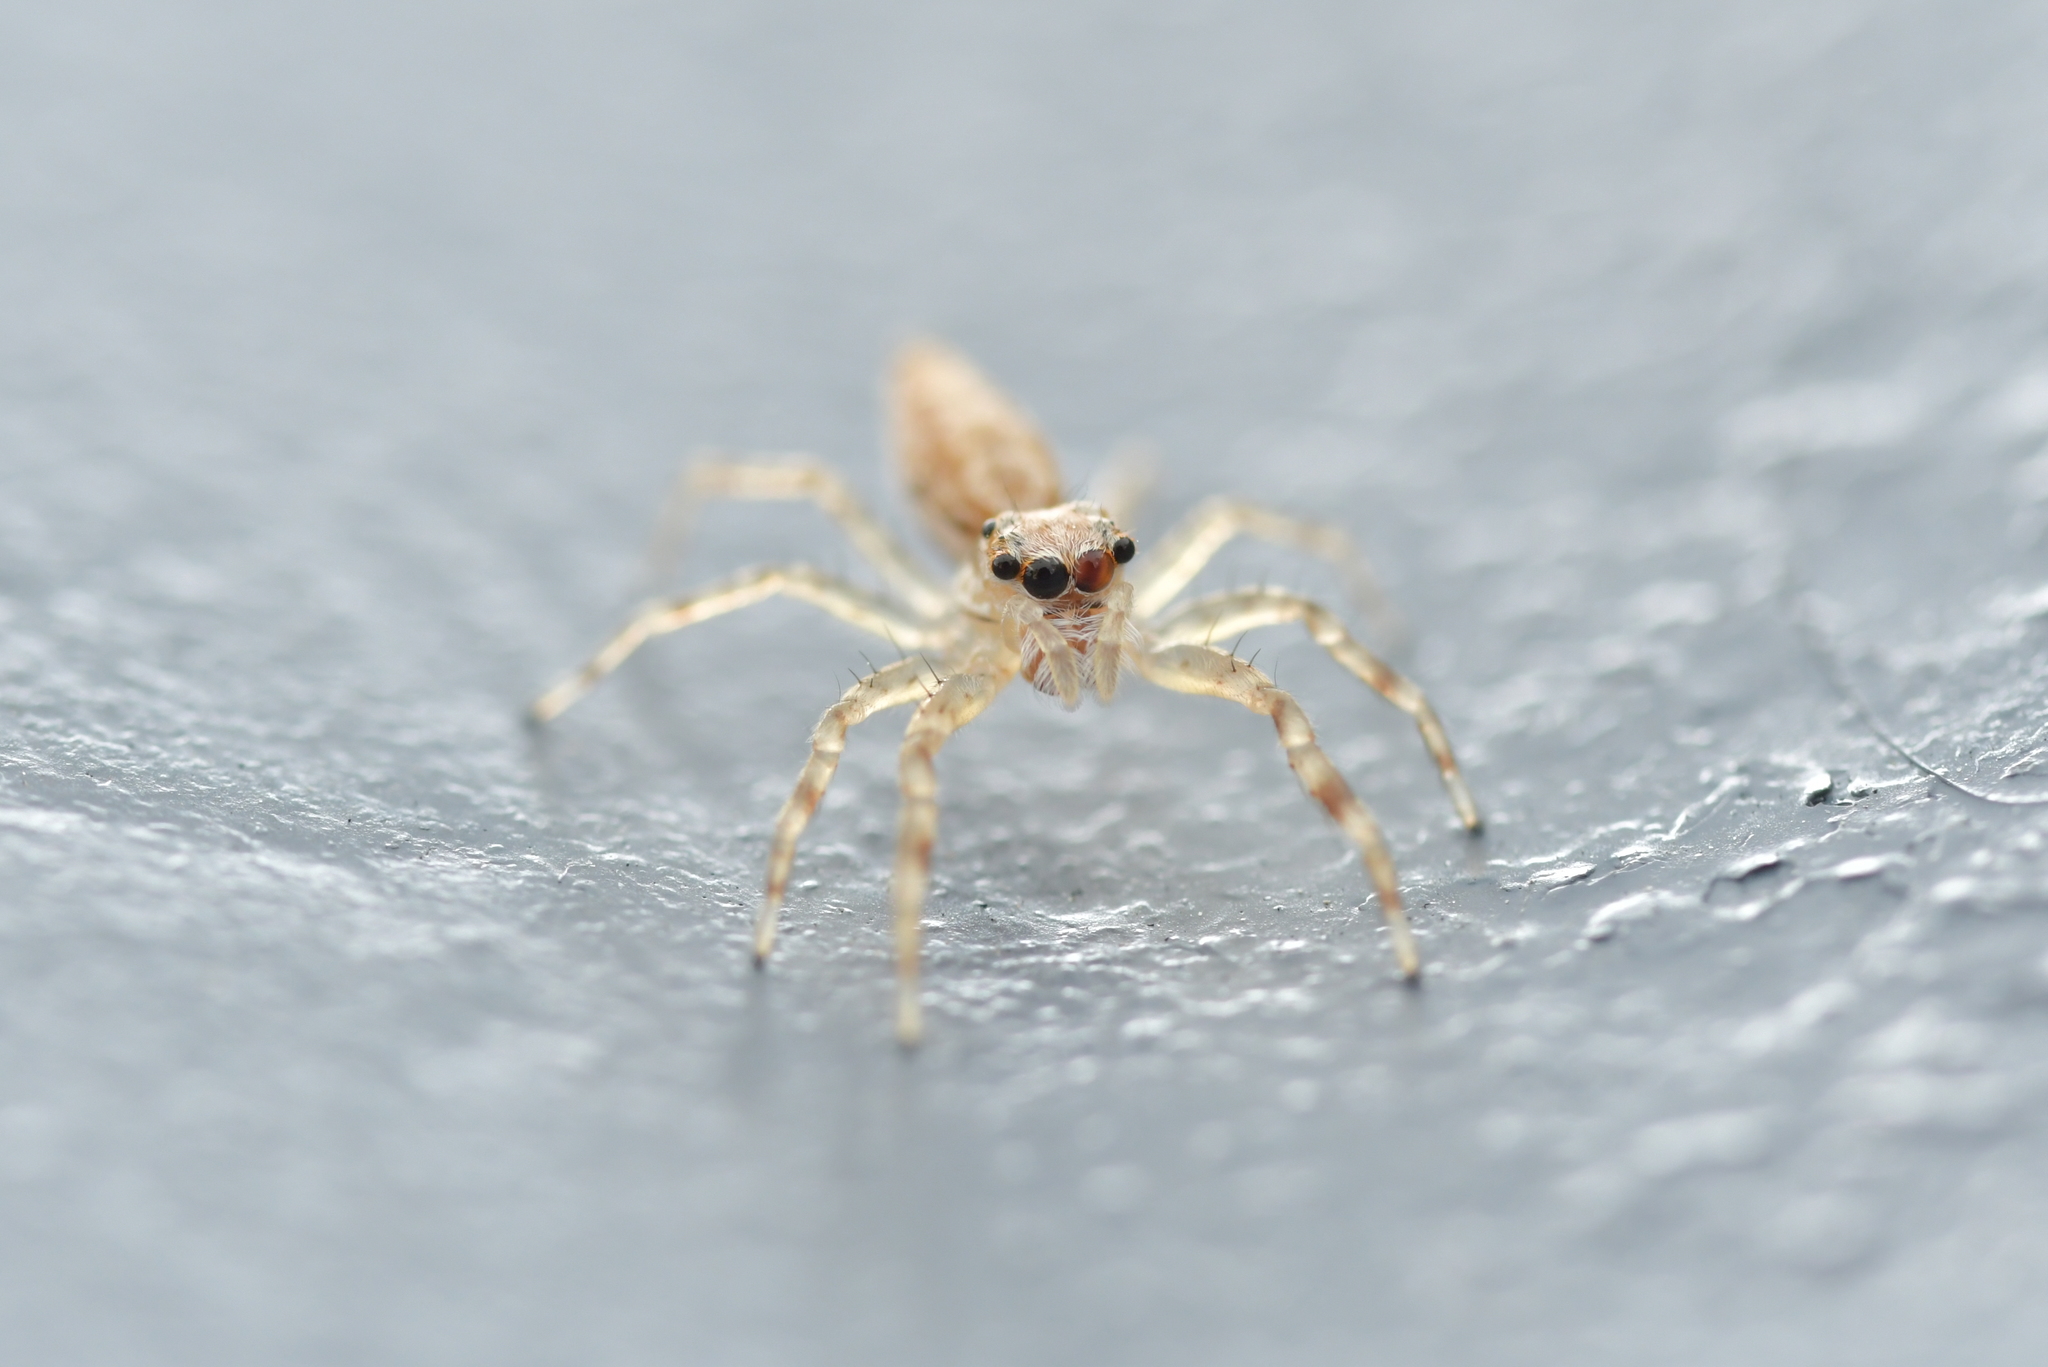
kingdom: Animalia
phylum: Arthropoda
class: Arachnida
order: Araneae
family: Salticidae
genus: Helpis
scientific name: Helpis minitabunda
